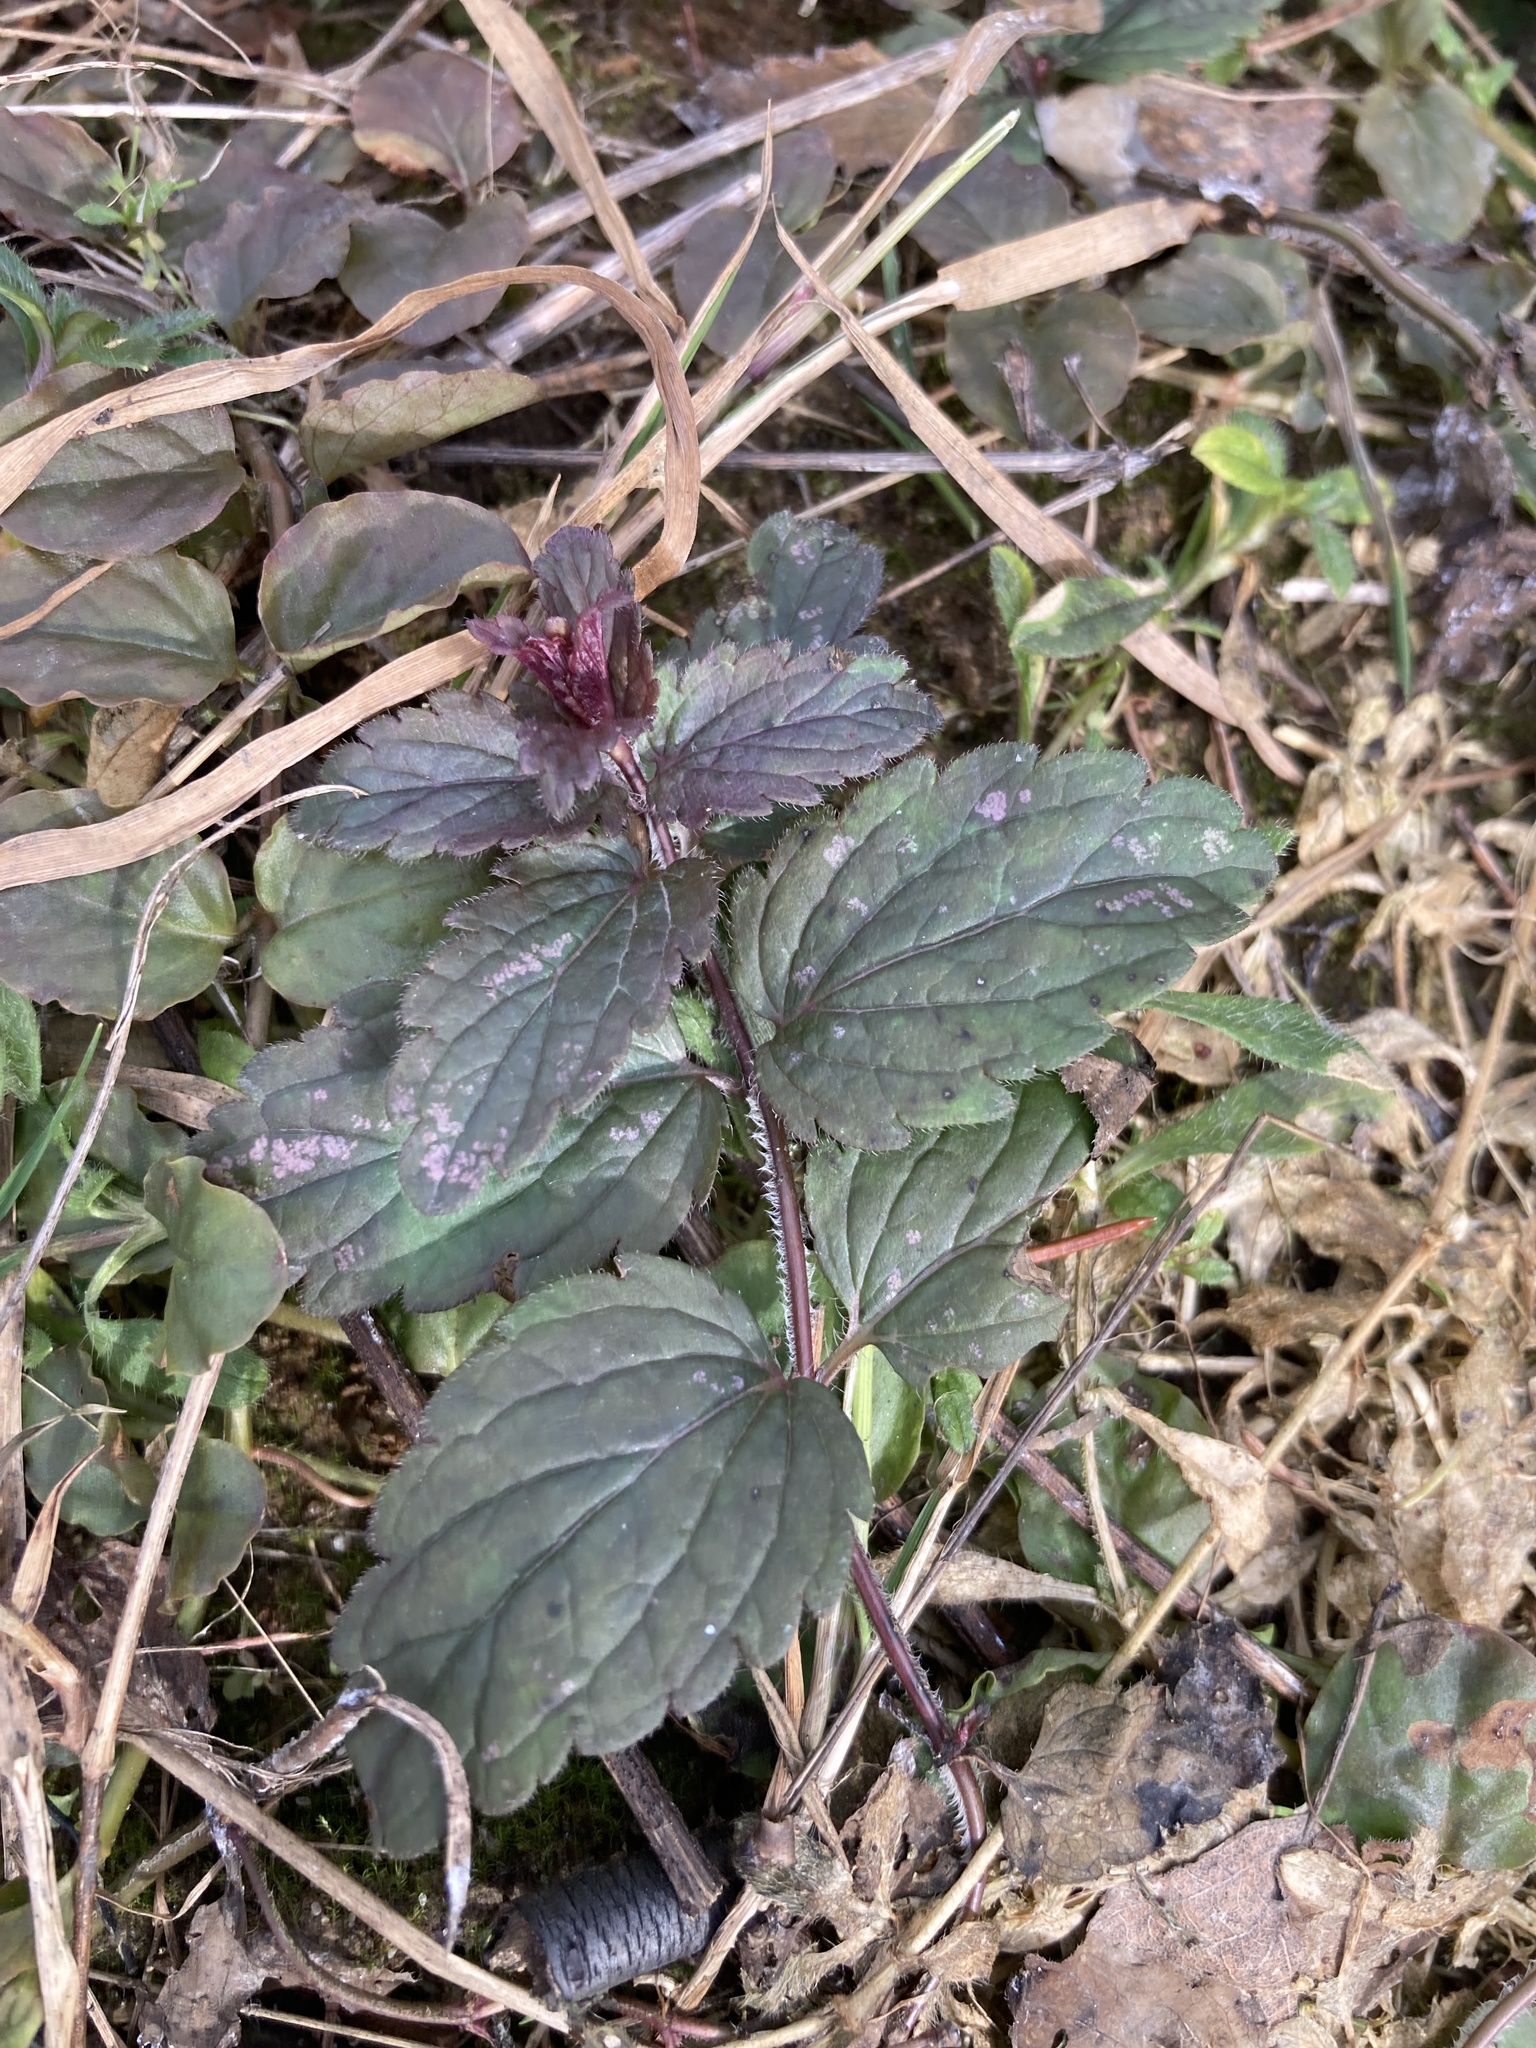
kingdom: Plantae
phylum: Tracheophyta
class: Magnoliopsida
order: Lamiales
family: Plantaginaceae
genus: Veronica
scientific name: Veronica chamaedrys
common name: Germander speedwell
